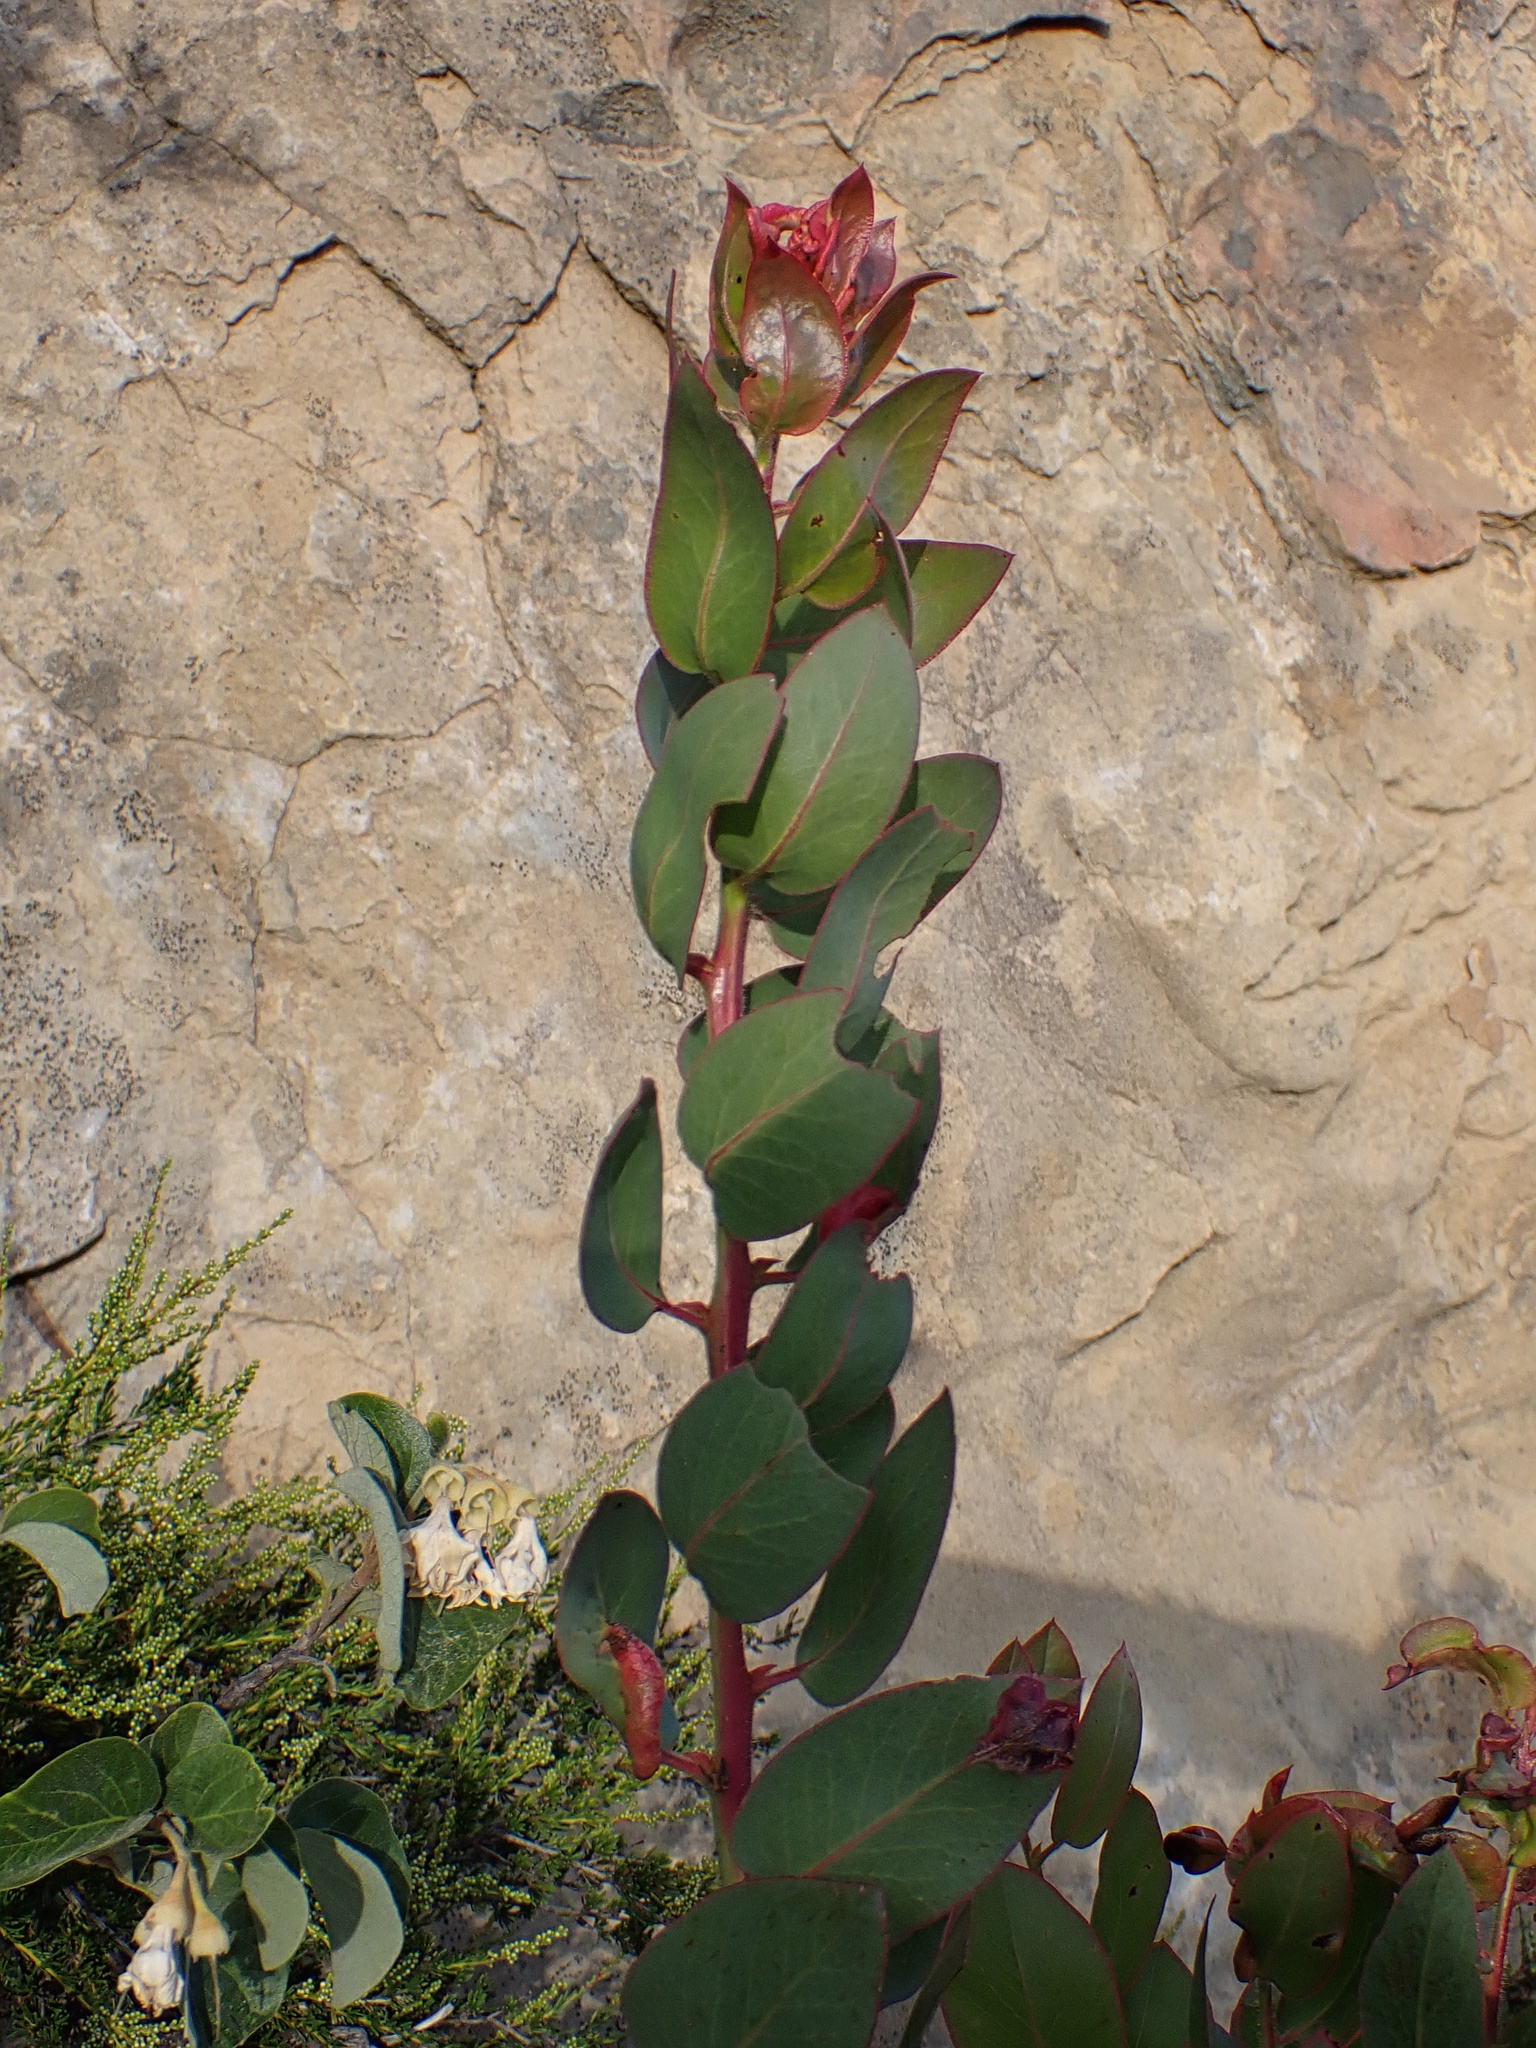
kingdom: Plantae
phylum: Tracheophyta
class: Magnoliopsida
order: Ericales
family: Ericaceae
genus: Arctostaphylos
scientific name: Arctostaphylos glauca
